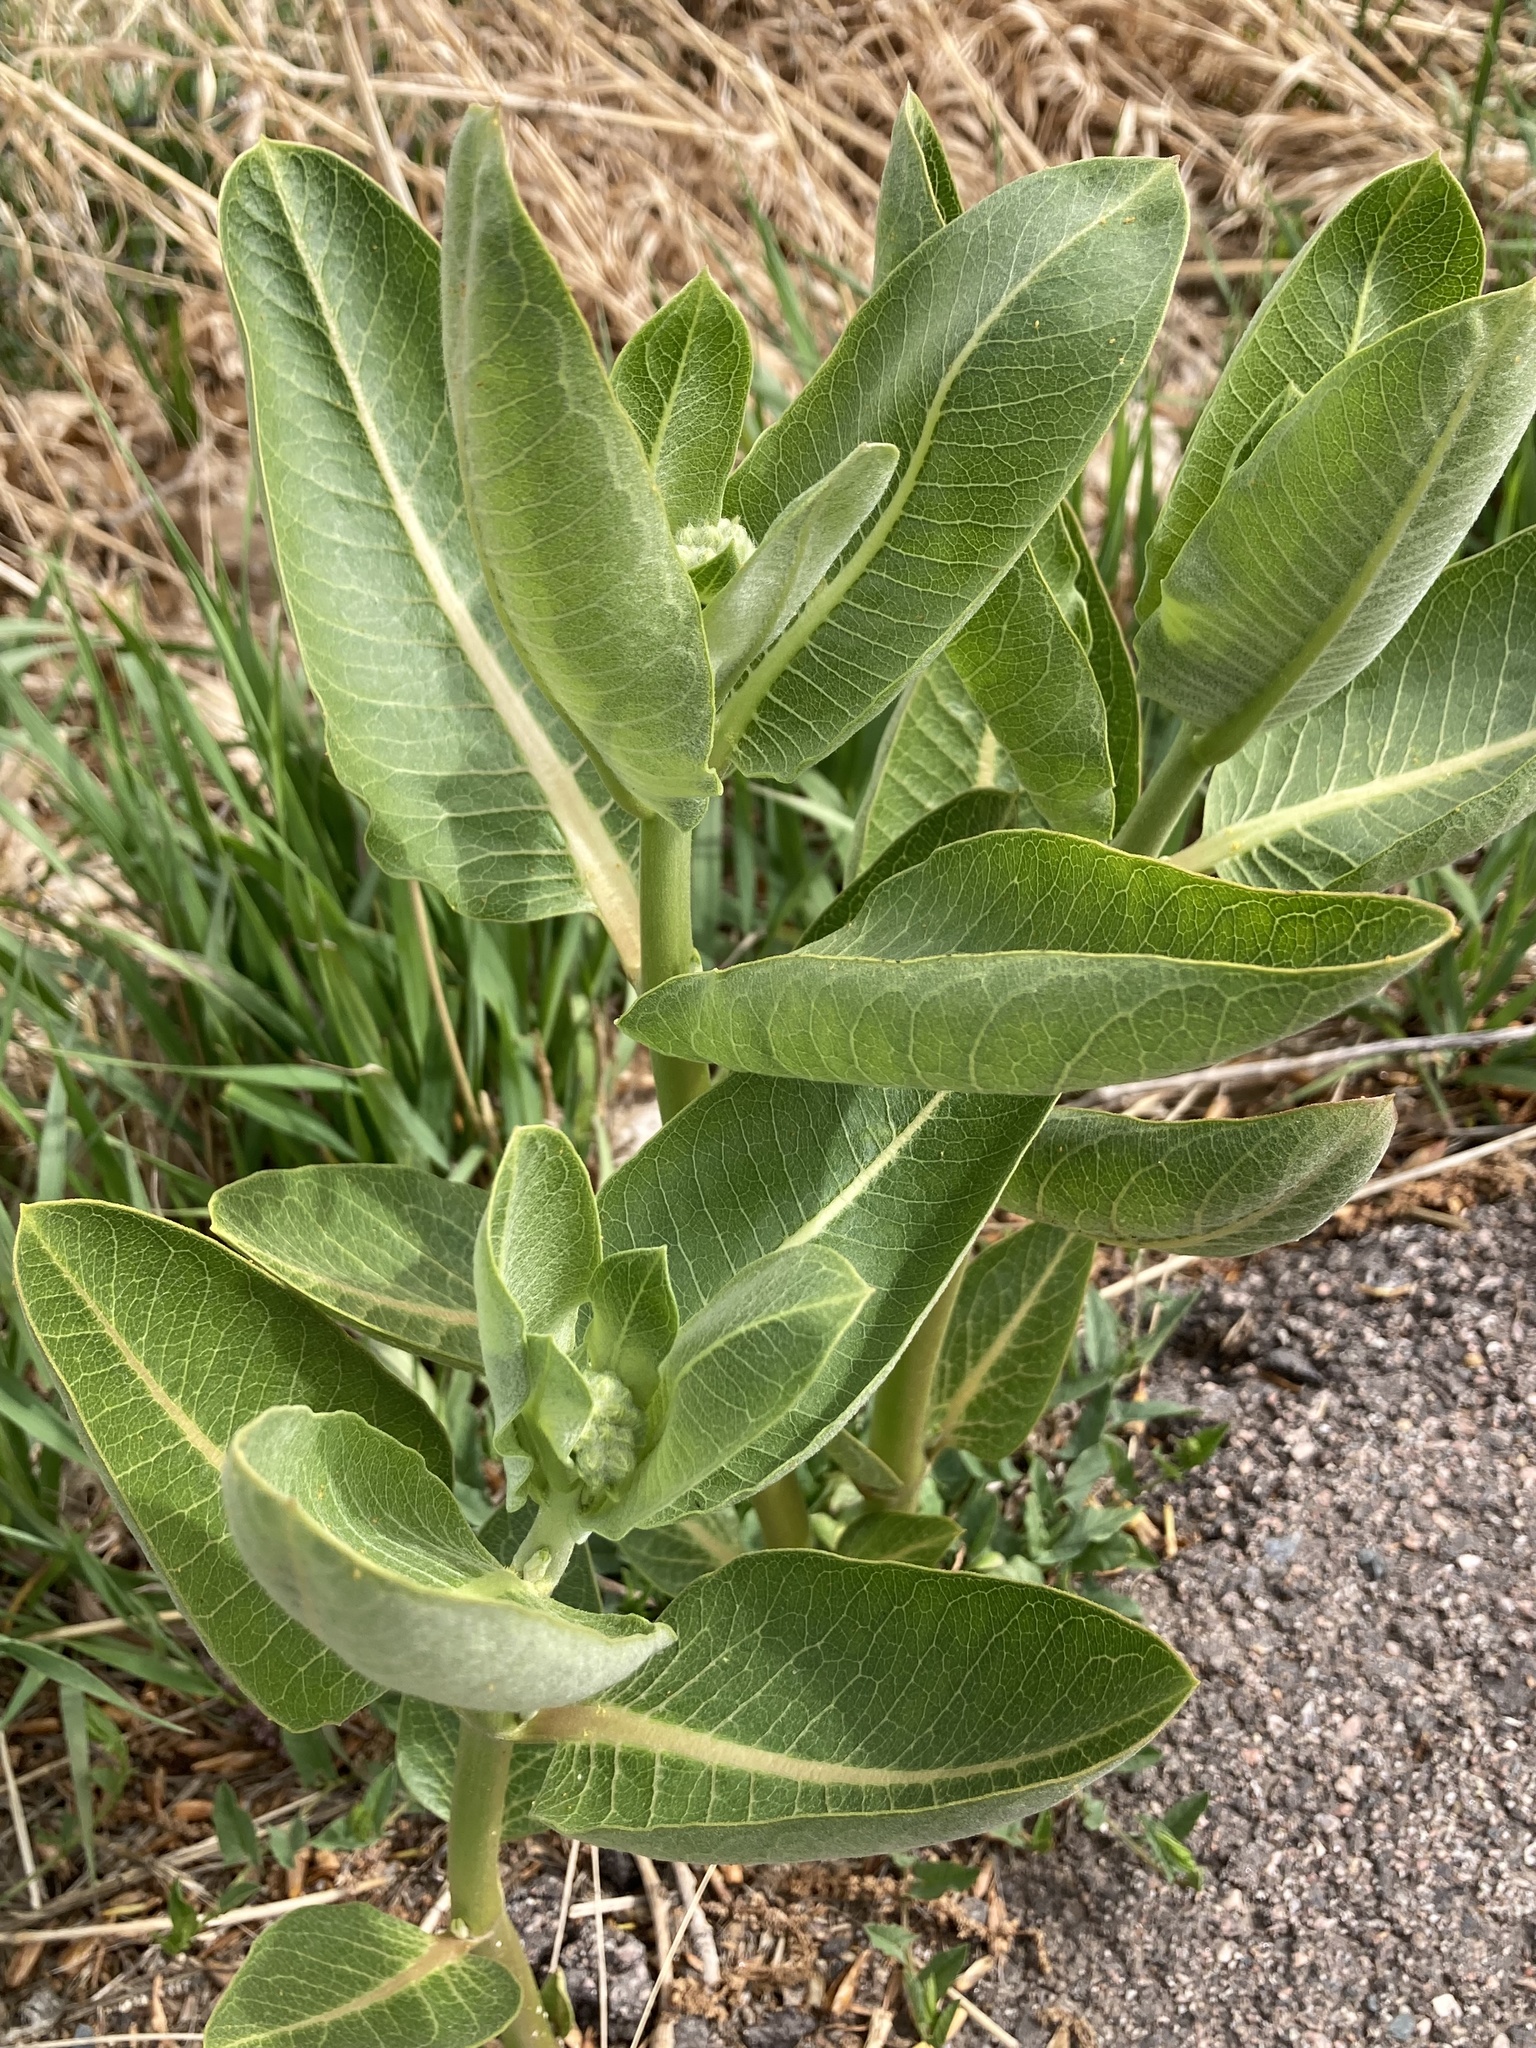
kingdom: Plantae
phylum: Tracheophyta
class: Magnoliopsida
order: Gentianales
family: Apocynaceae
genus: Asclepias
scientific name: Asclepias speciosa
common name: Showy milkweed
